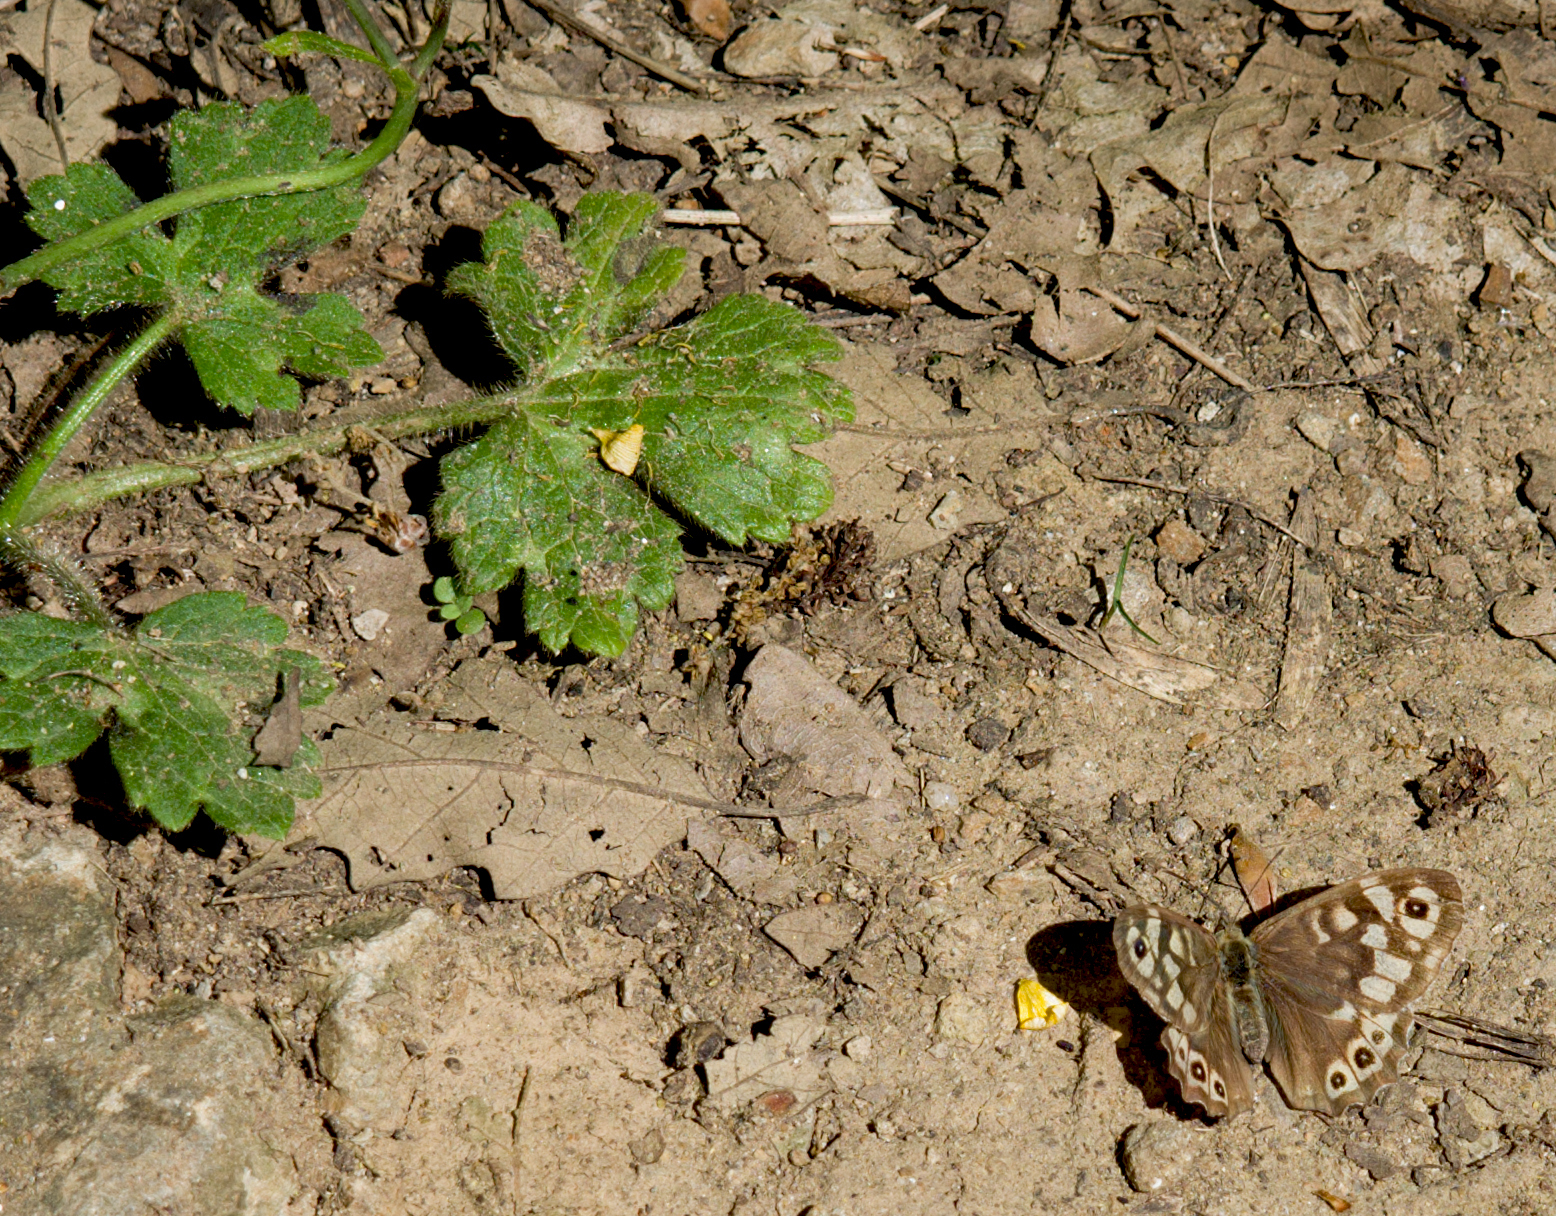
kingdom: Animalia
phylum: Arthropoda
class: Insecta
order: Lepidoptera
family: Nymphalidae
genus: Pararge
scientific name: Pararge aegeria
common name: Speckled wood
